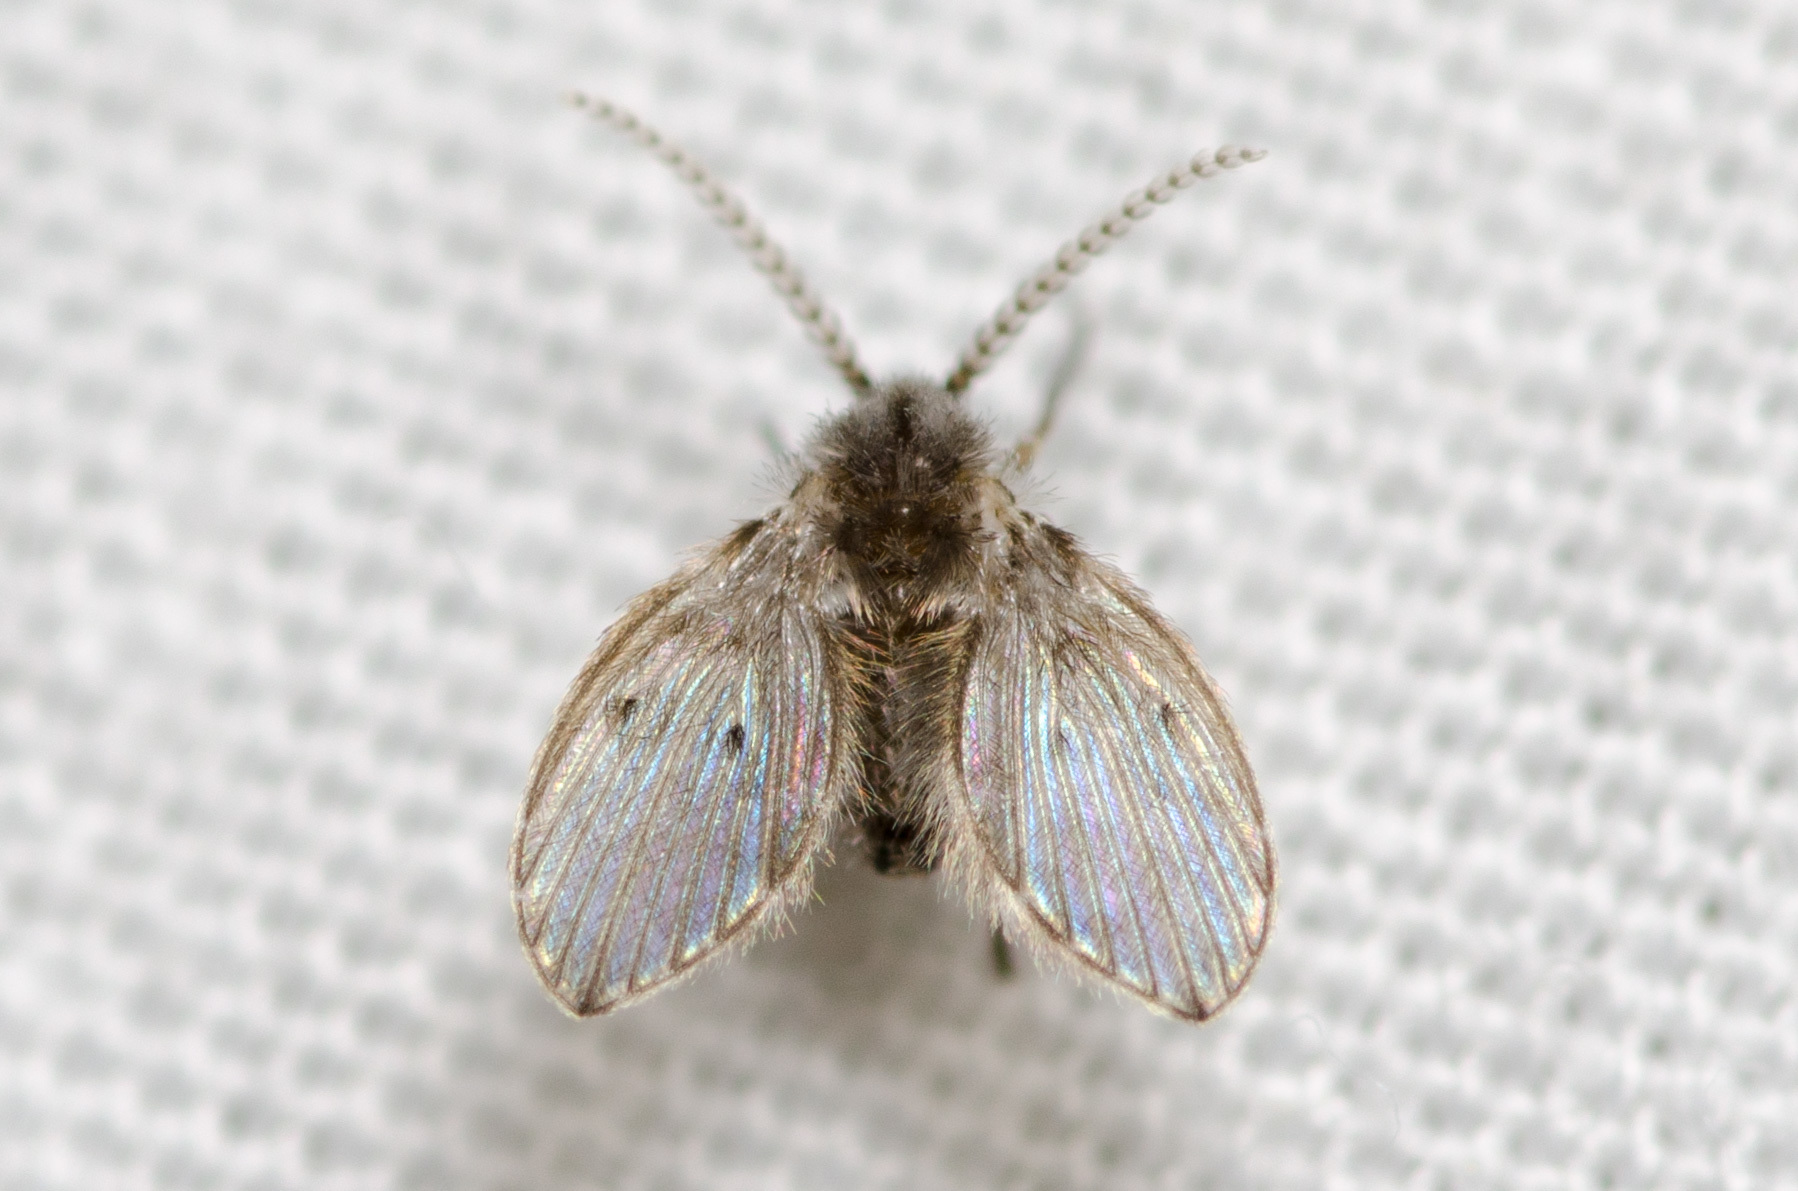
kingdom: Animalia
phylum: Arthropoda
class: Insecta
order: Diptera
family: Psychodidae
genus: Clogmia
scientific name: Clogmia albipunctatus
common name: White-spotted moth fly
